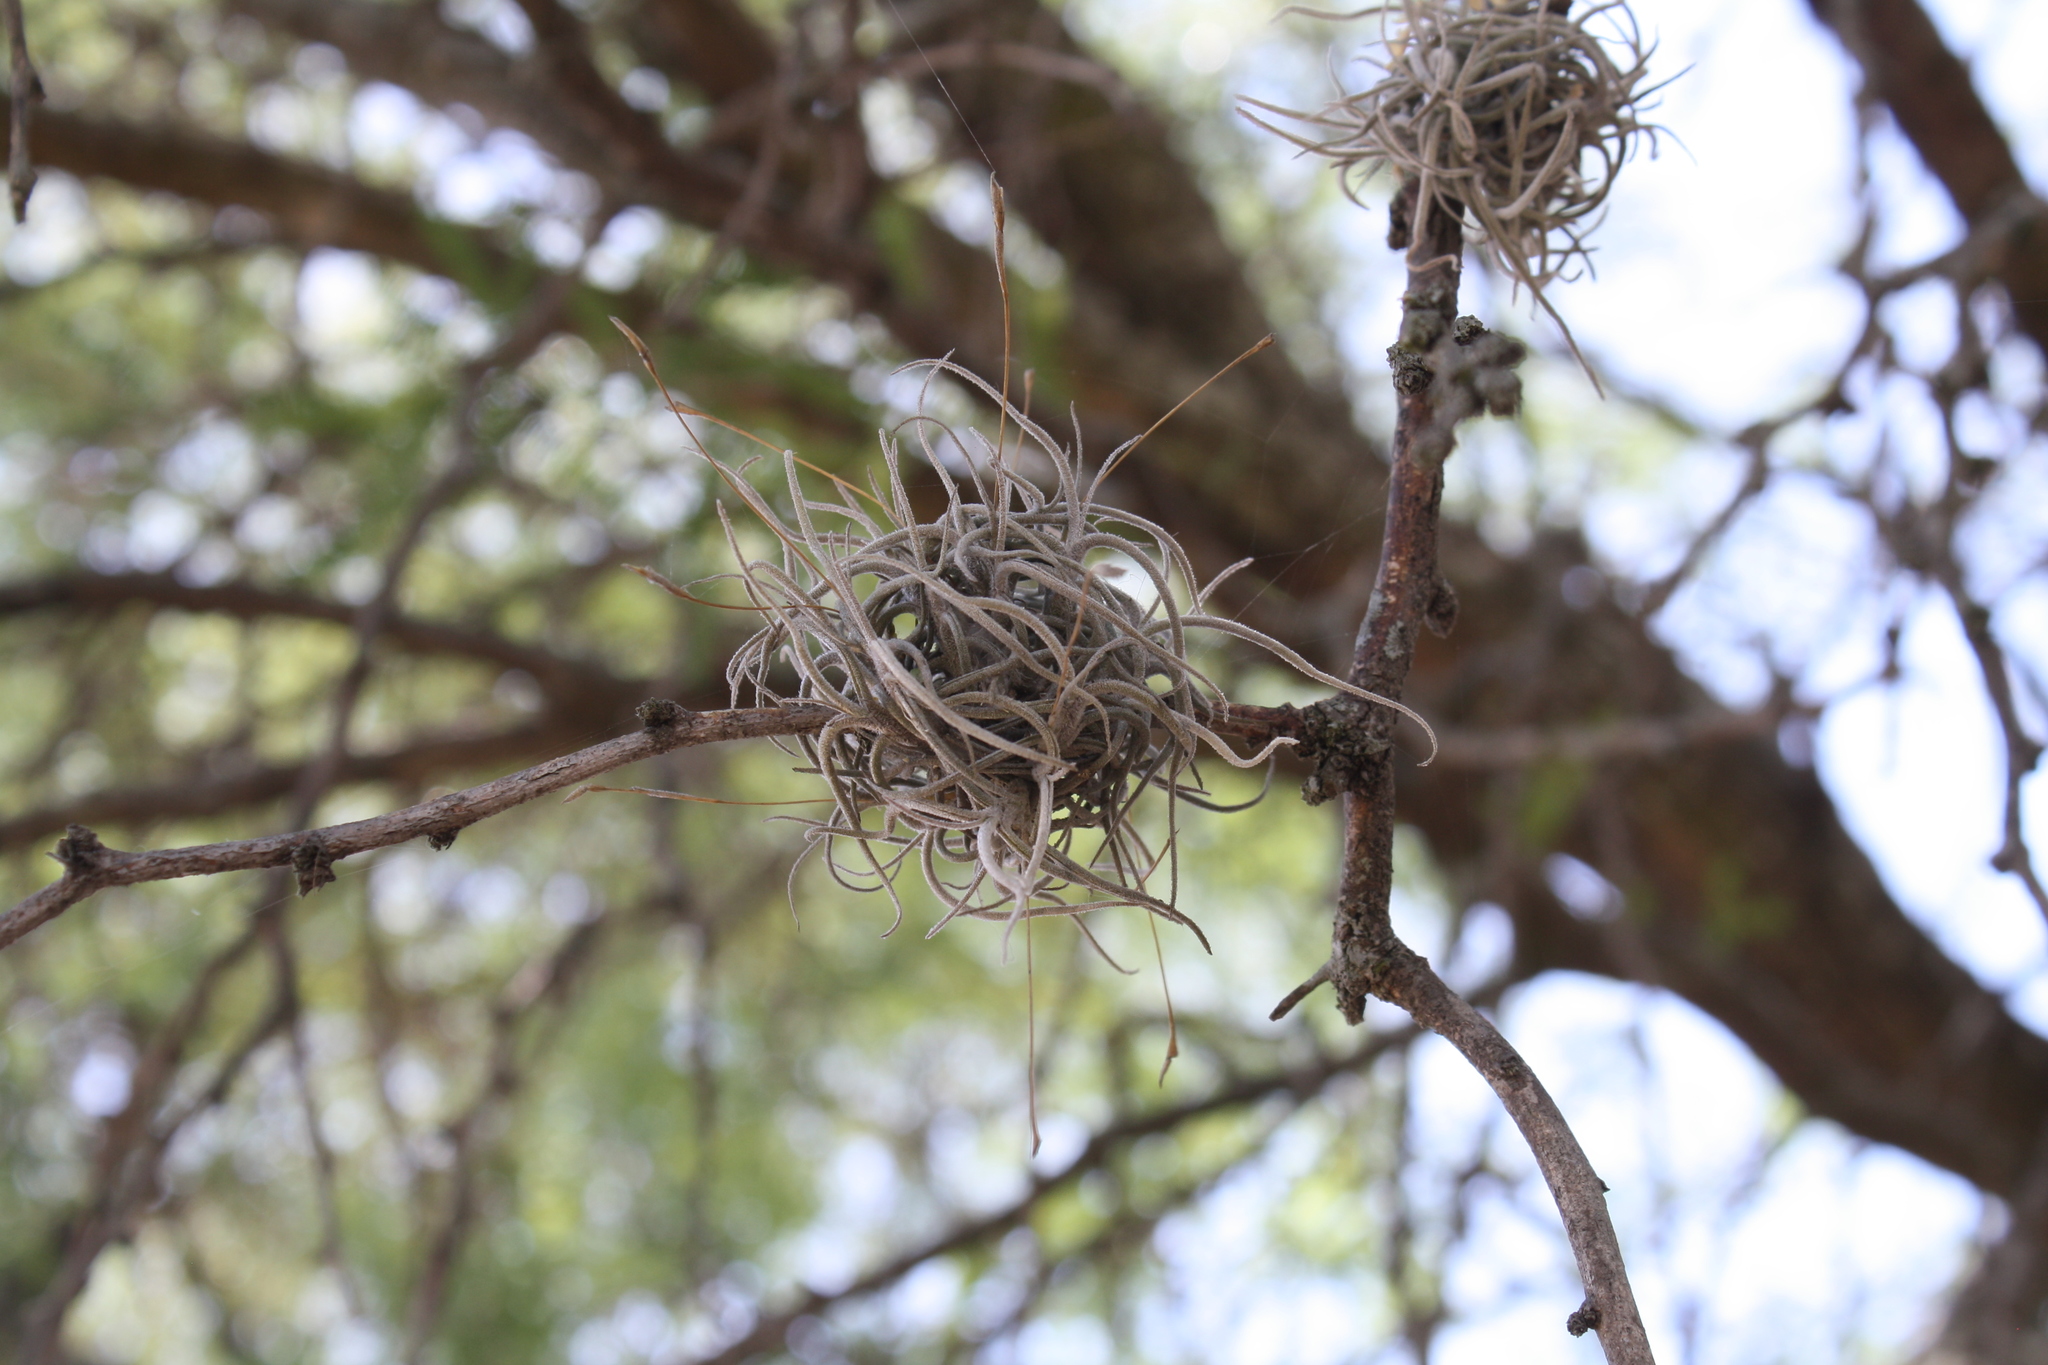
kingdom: Plantae
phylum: Tracheophyta
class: Liliopsida
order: Poales
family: Bromeliaceae
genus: Tillandsia
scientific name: Tillandsia recurvata
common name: Small ballmoss
